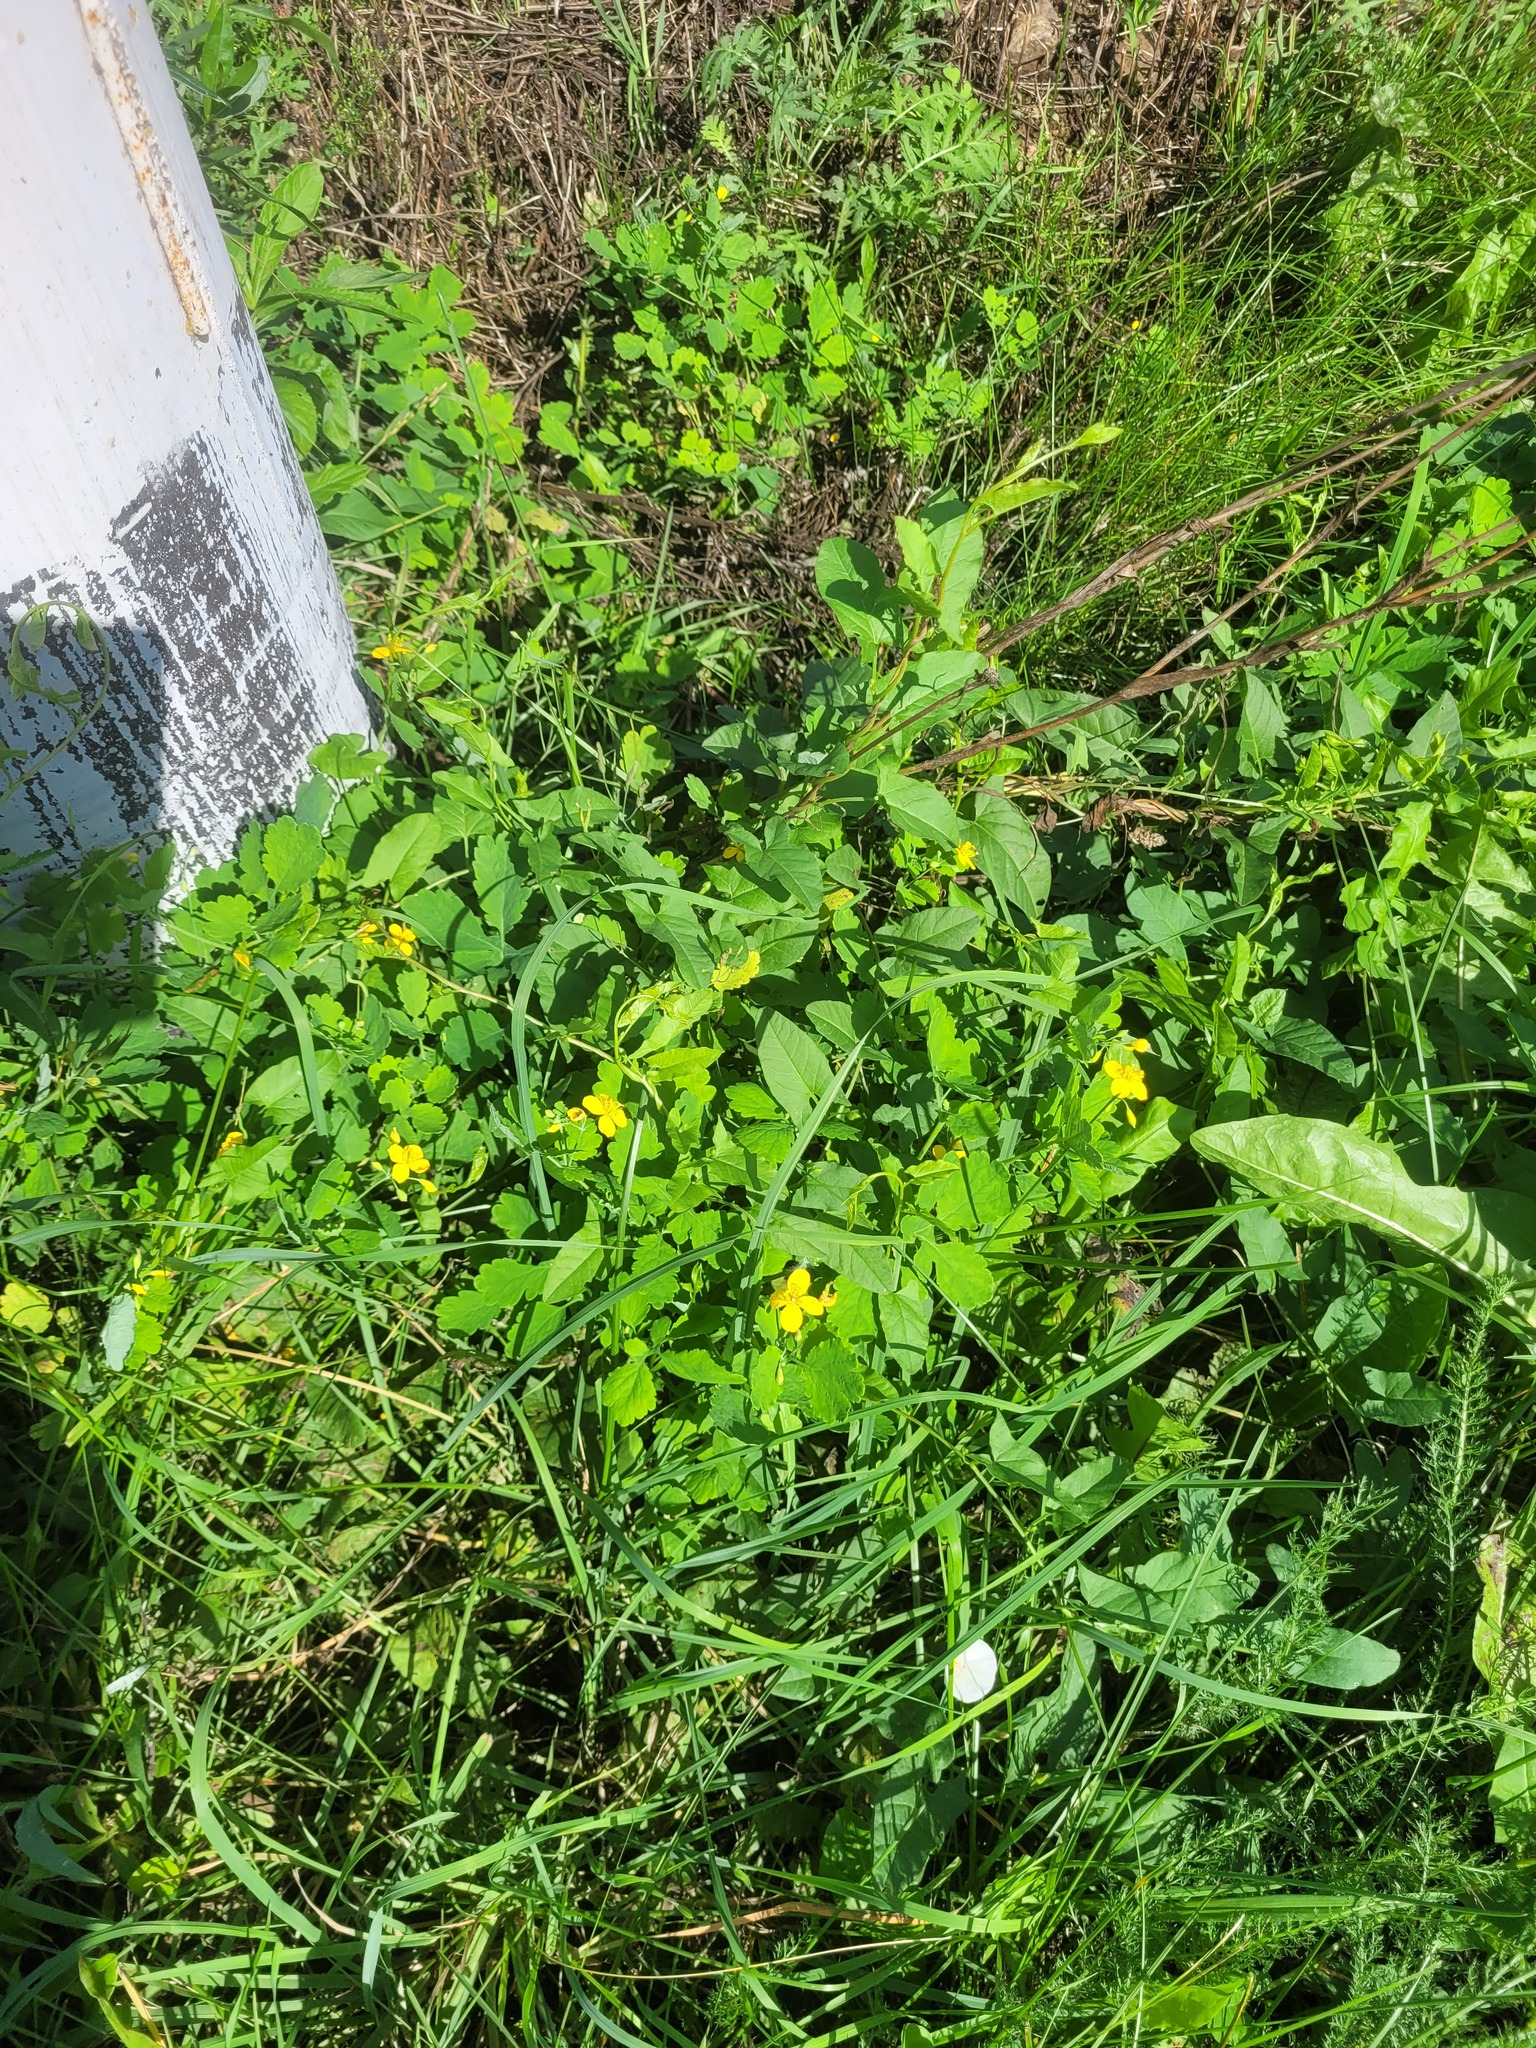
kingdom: Plantae
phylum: Tracheophyta
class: Magnoliopsida
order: Ranunculales
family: Papaveraceae
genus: Chelidonium
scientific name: Chelidonium majus
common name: Greater celandine
